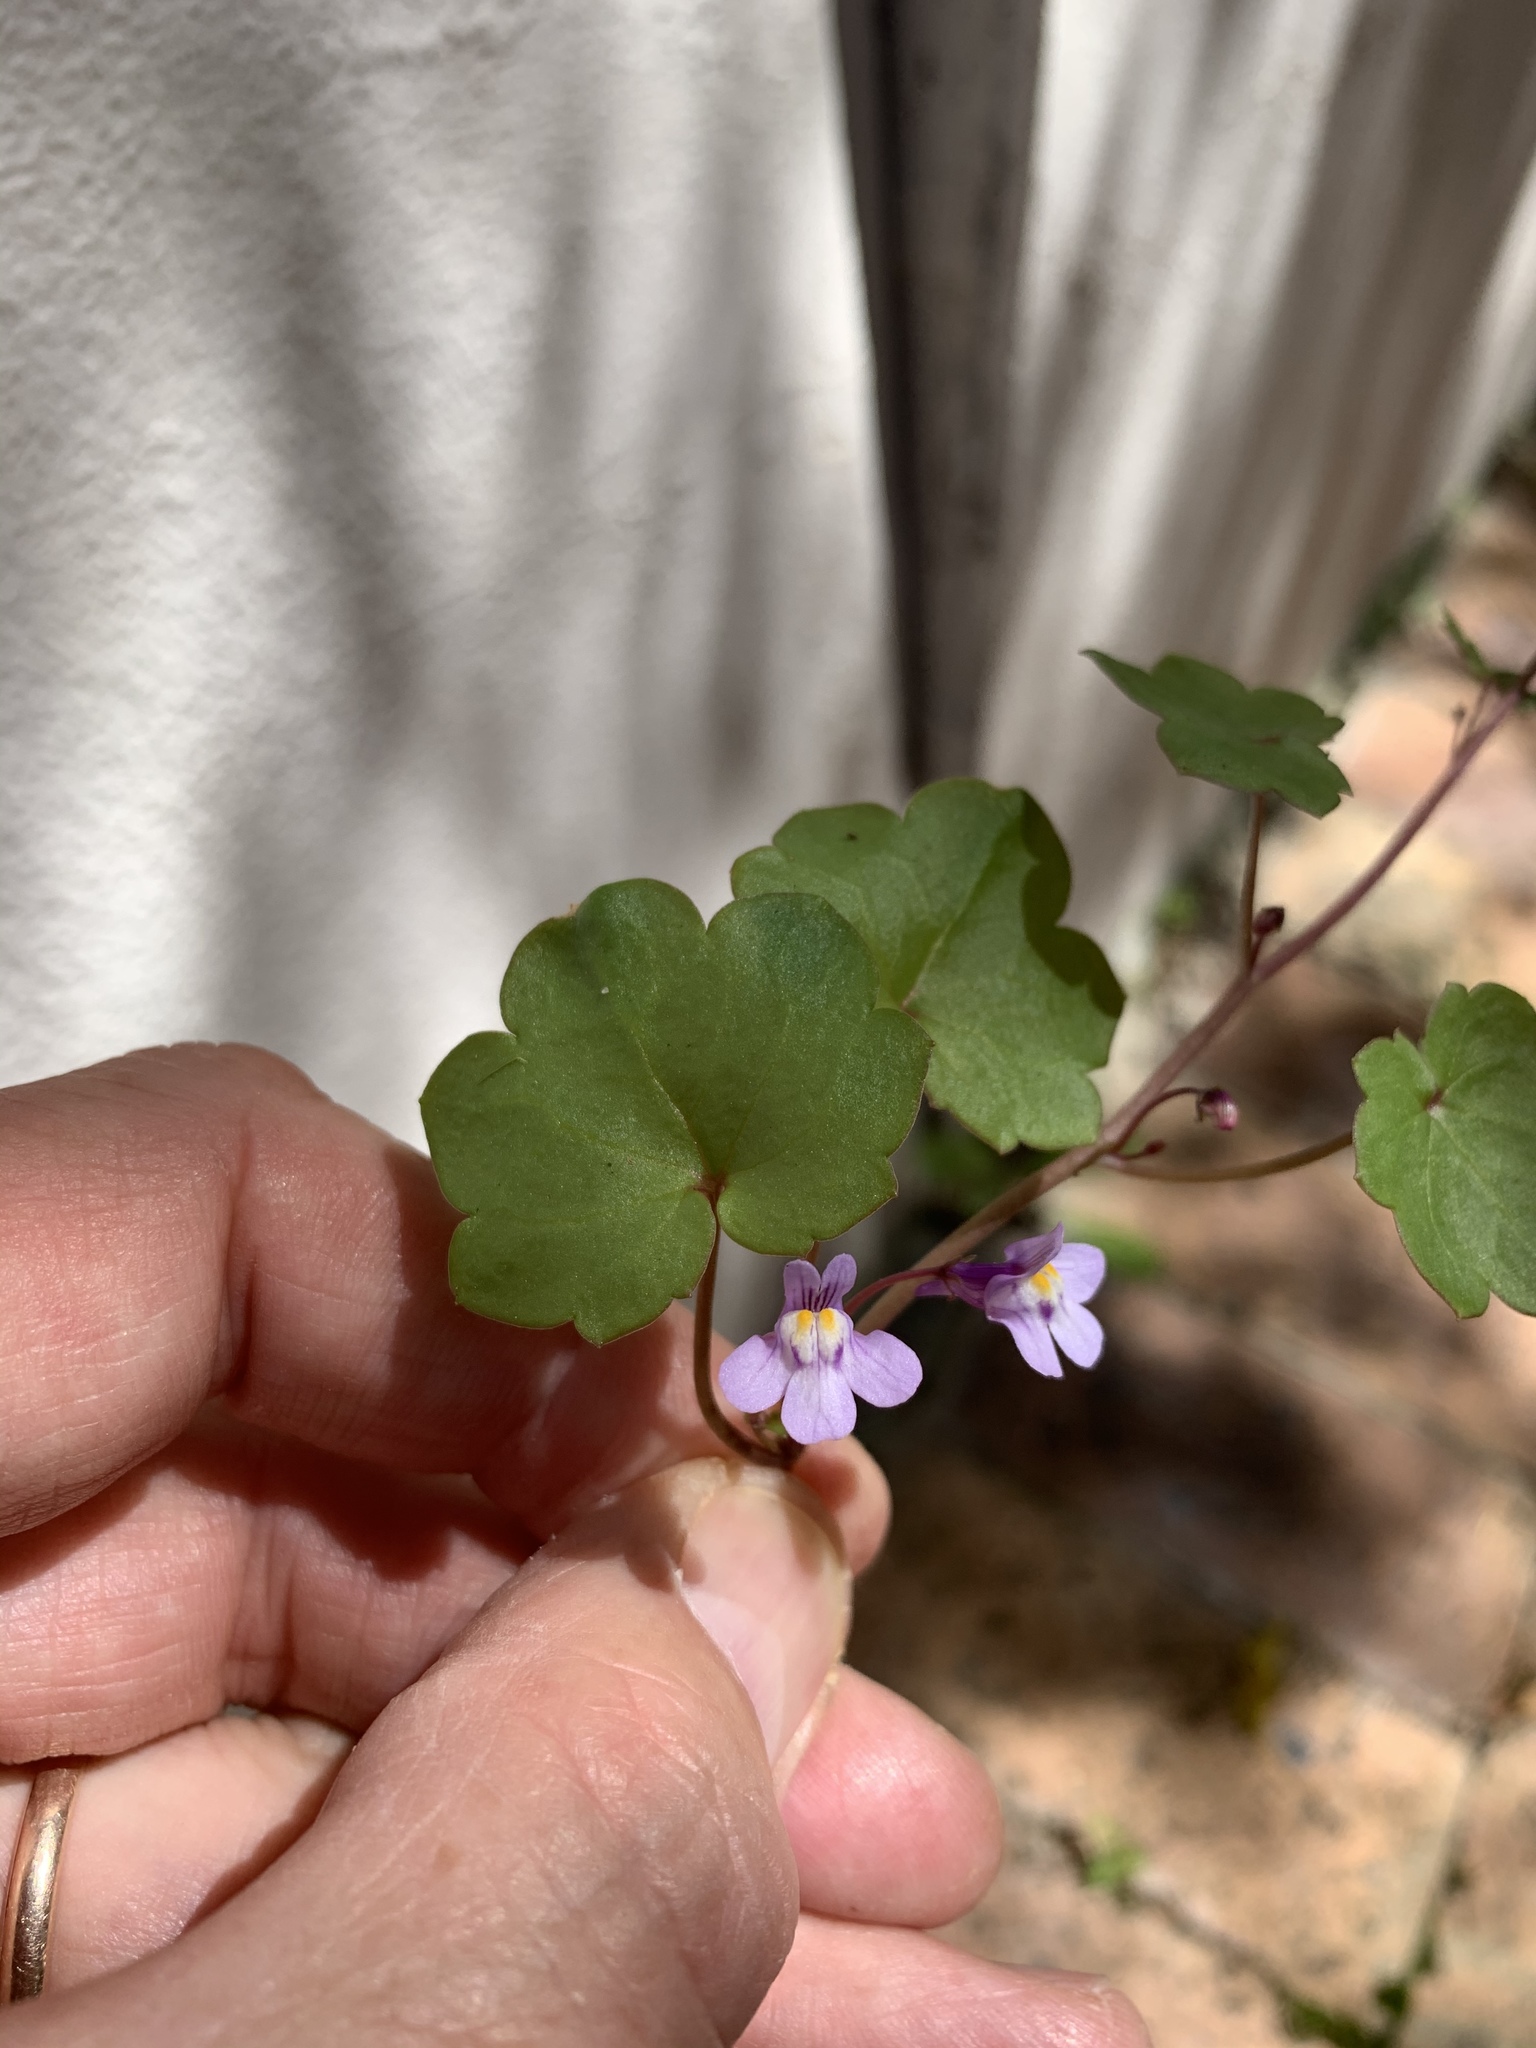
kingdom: Plantae
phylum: Tracheophyta
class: Magnoliopsida
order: Lamiales
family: Plantaginaceae
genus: Cymbalaria
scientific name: Cymbalaria muralis
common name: Ivy-leaved toadflax
